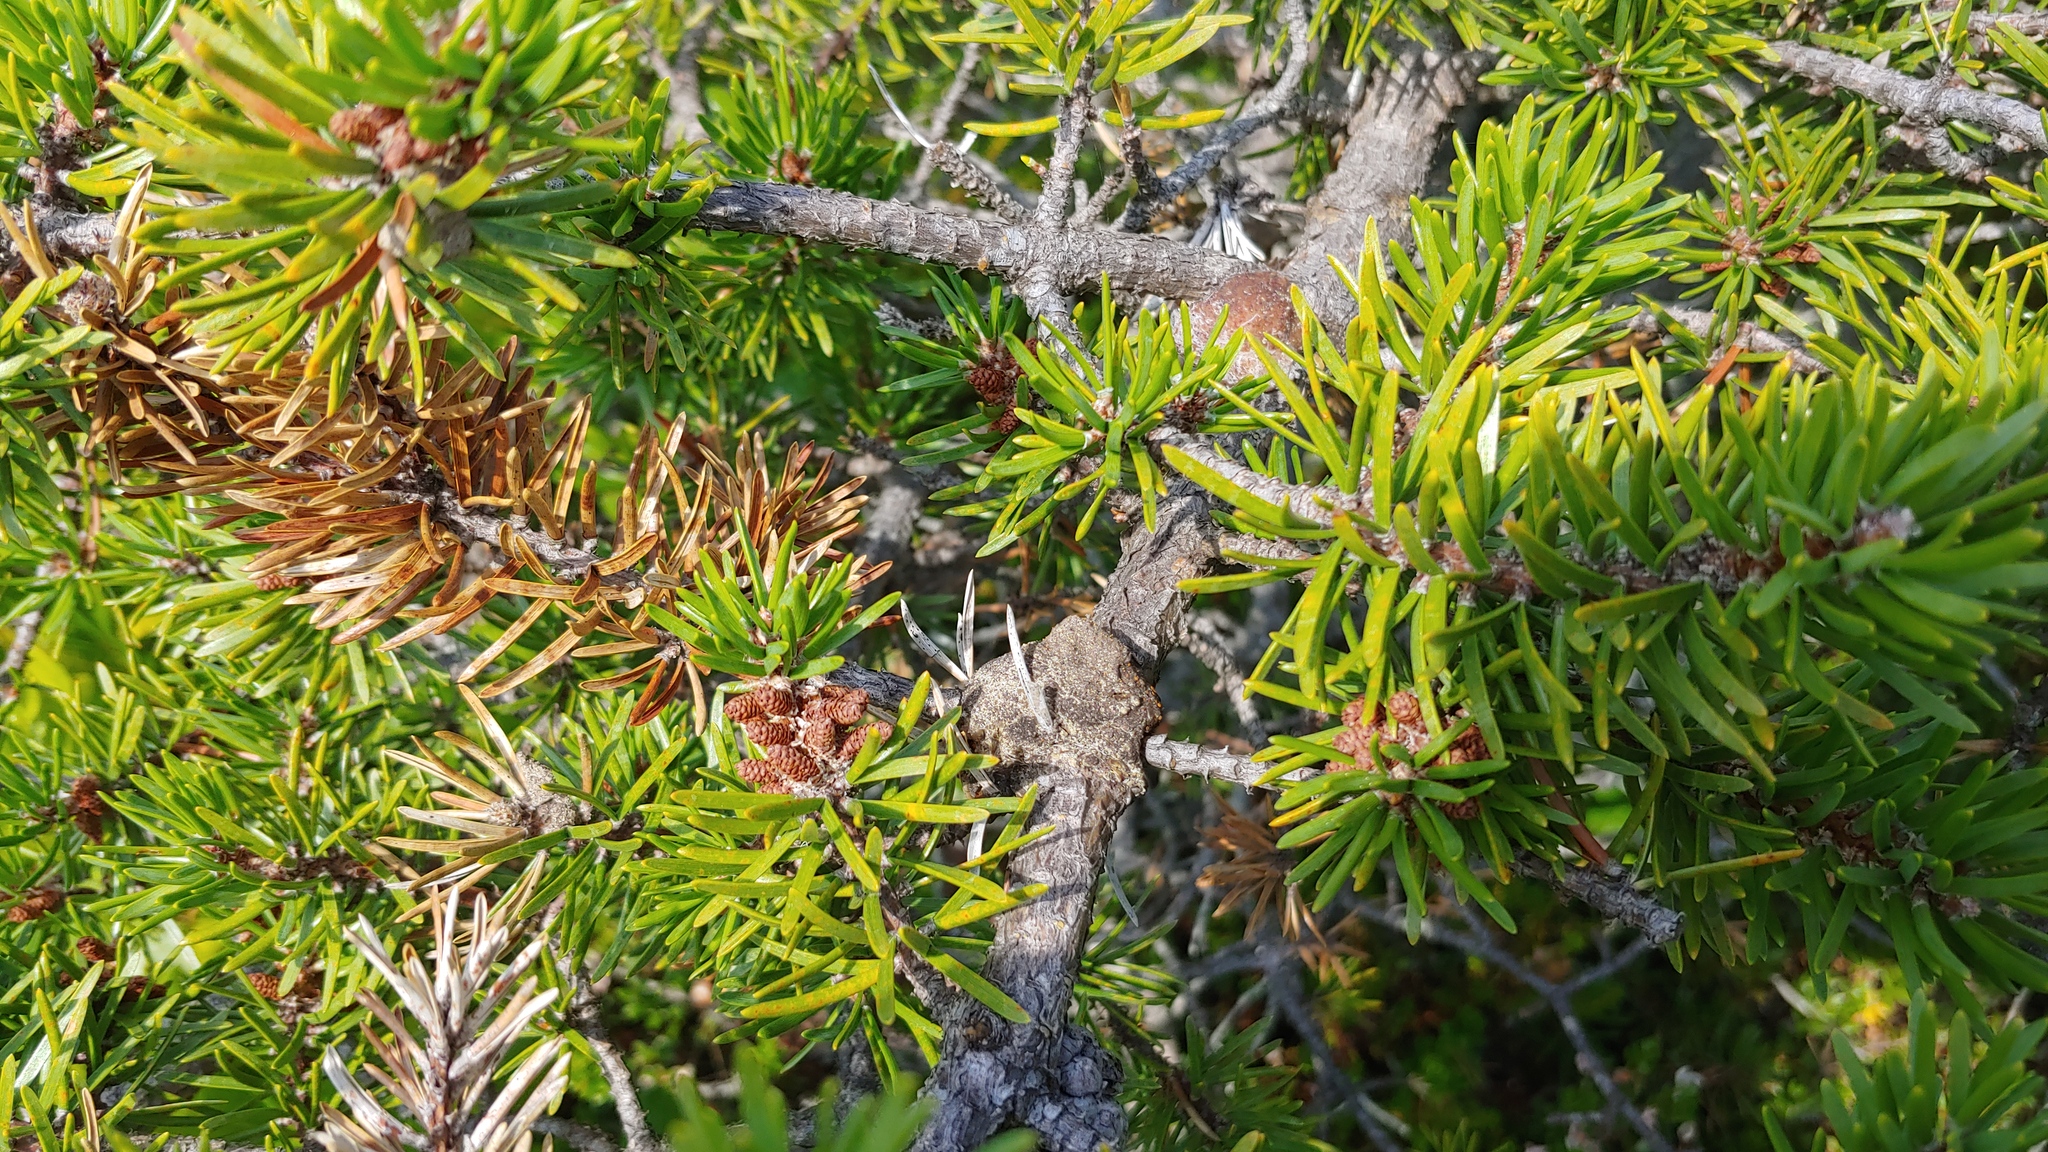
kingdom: Plantae
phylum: Tracheophyta
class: Pinopsida
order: Pinales
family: Pinaceae
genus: Pinus
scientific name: Pinus banksiana
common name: Jack pine
